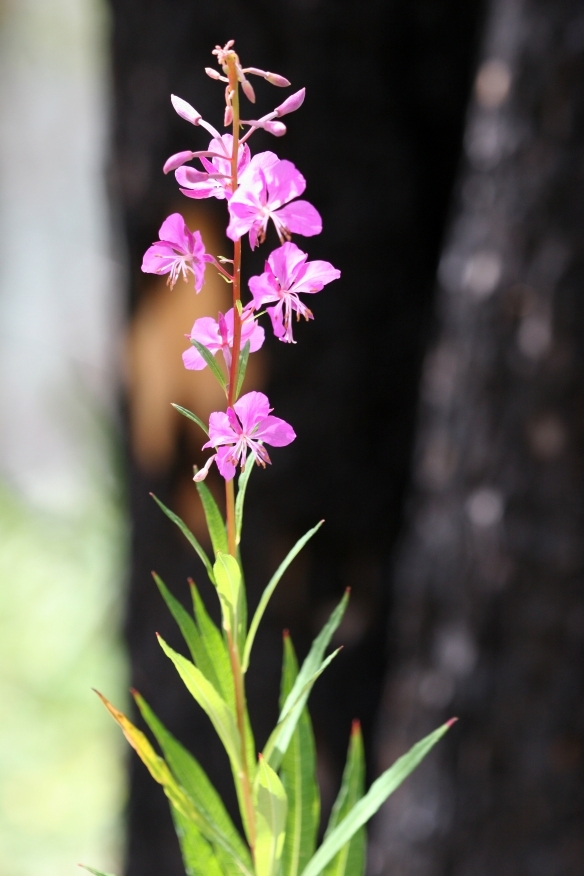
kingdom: Plantae
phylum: Tracheophyta
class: Magnoliopsida
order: Myrtales
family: Onagraceae
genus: Chamaenerion
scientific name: Chamaenerion angustifolium
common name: Fireweed
